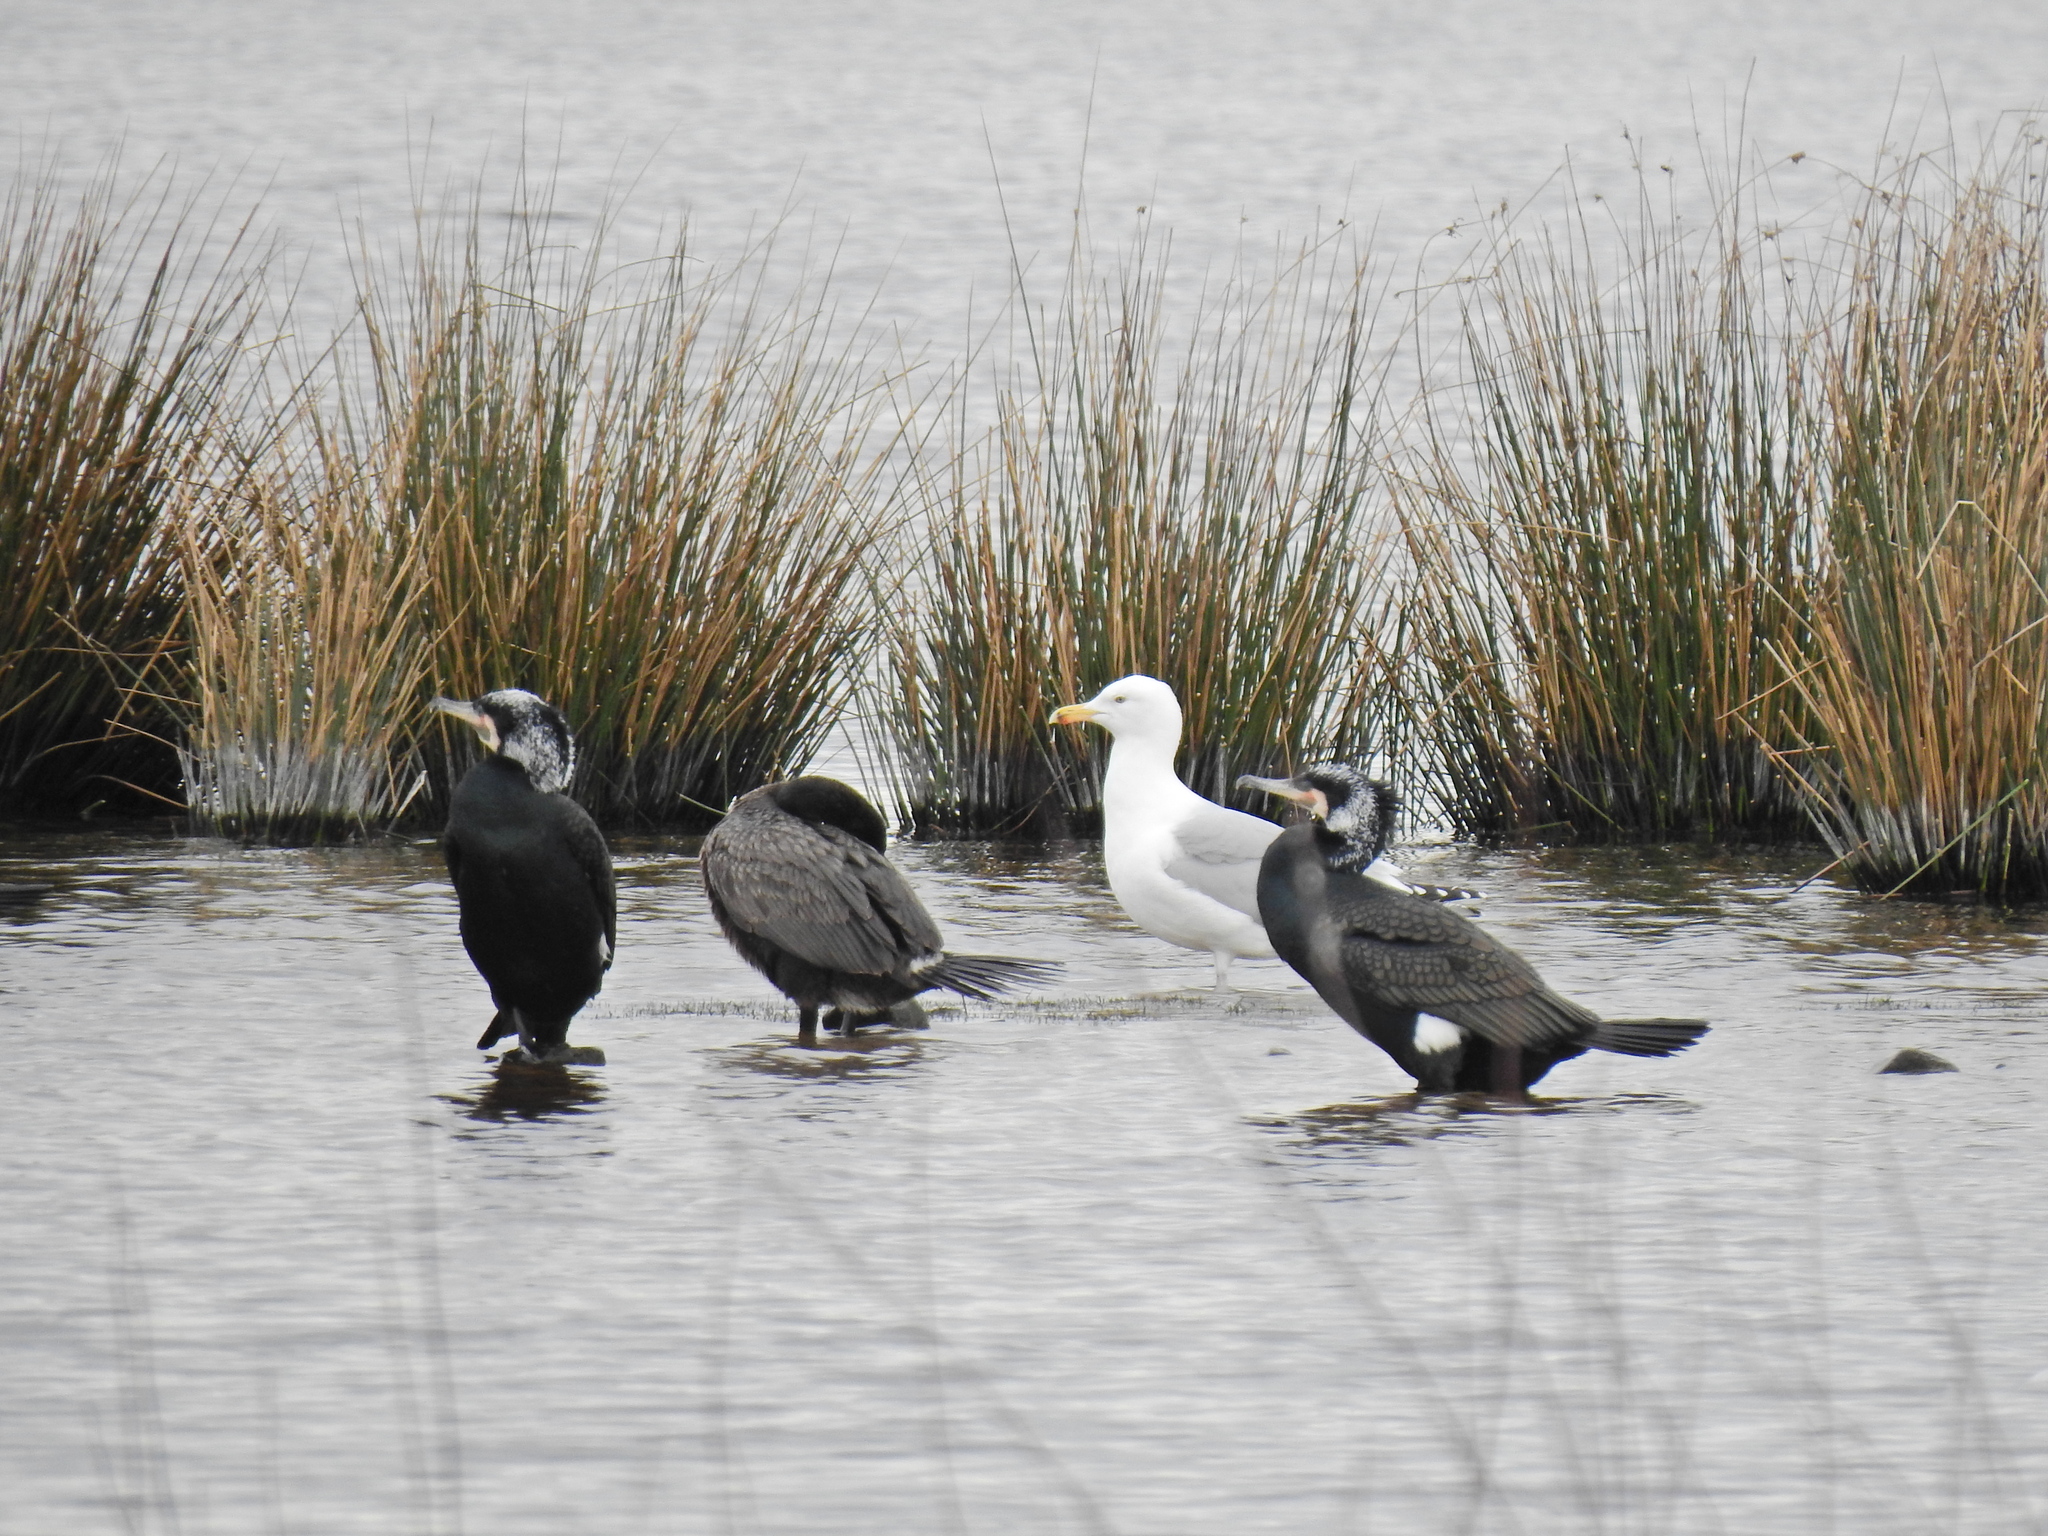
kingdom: Animalia
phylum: Chordata
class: Aves
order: Suliformes
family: Phalacrocoracidae
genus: Phalacrocorax
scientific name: Phalacrocorax carbo
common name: Great cormorant
